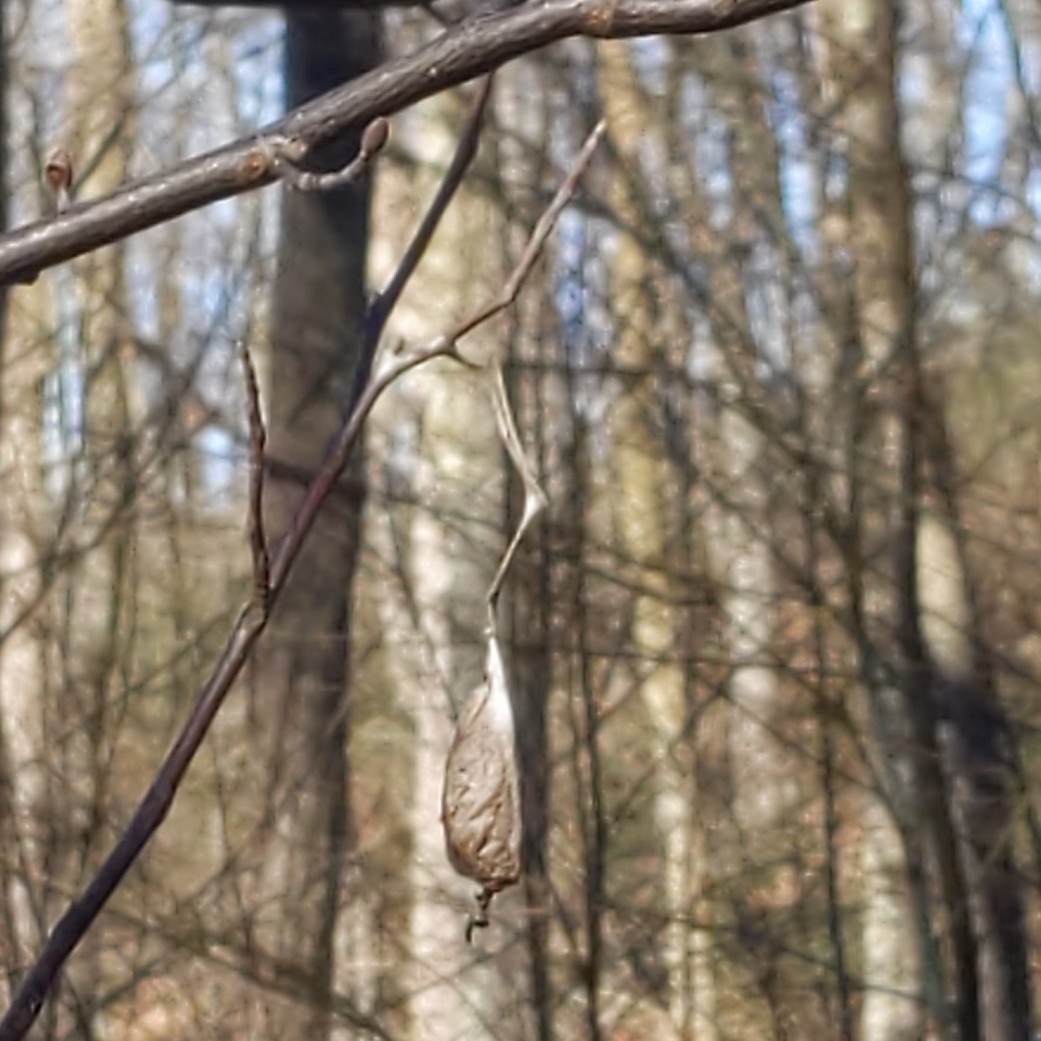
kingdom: Animalia
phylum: Arthropoda
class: Insecta
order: Lepidoptera
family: Saturniidae
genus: Callosamia
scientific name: Callosamia promethea
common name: Promethea silkmoth
